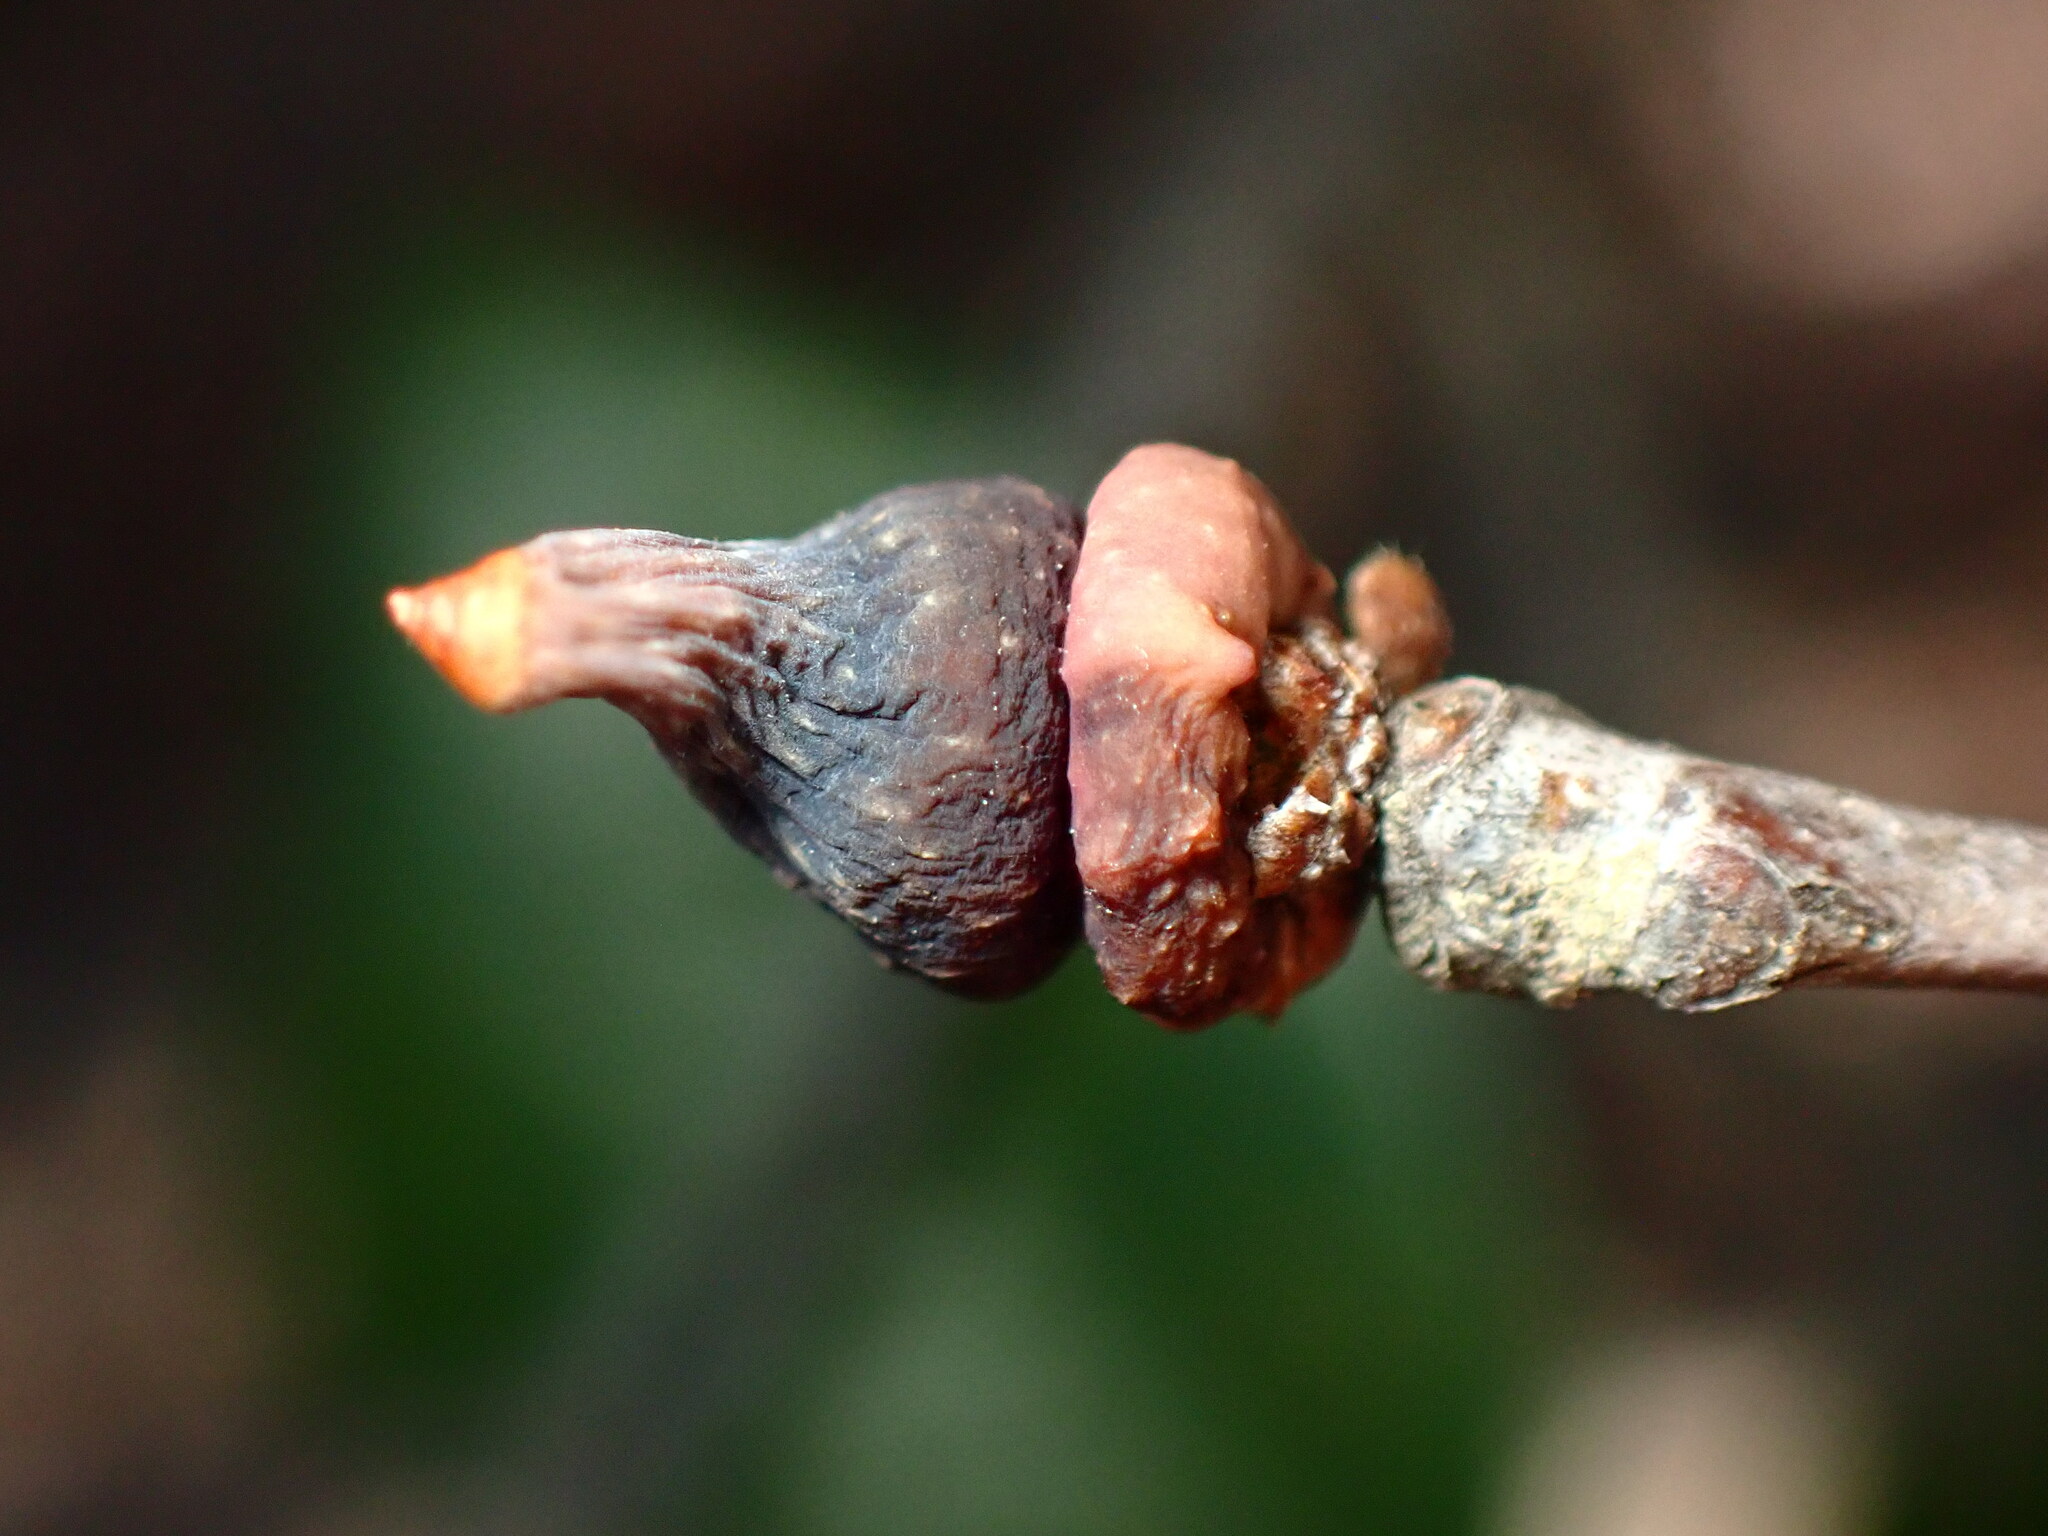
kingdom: Animalia
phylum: Arthropoda
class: Insecta
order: Hymenoptera
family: Cynipidae
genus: Heteroecus
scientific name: Heteroecus
